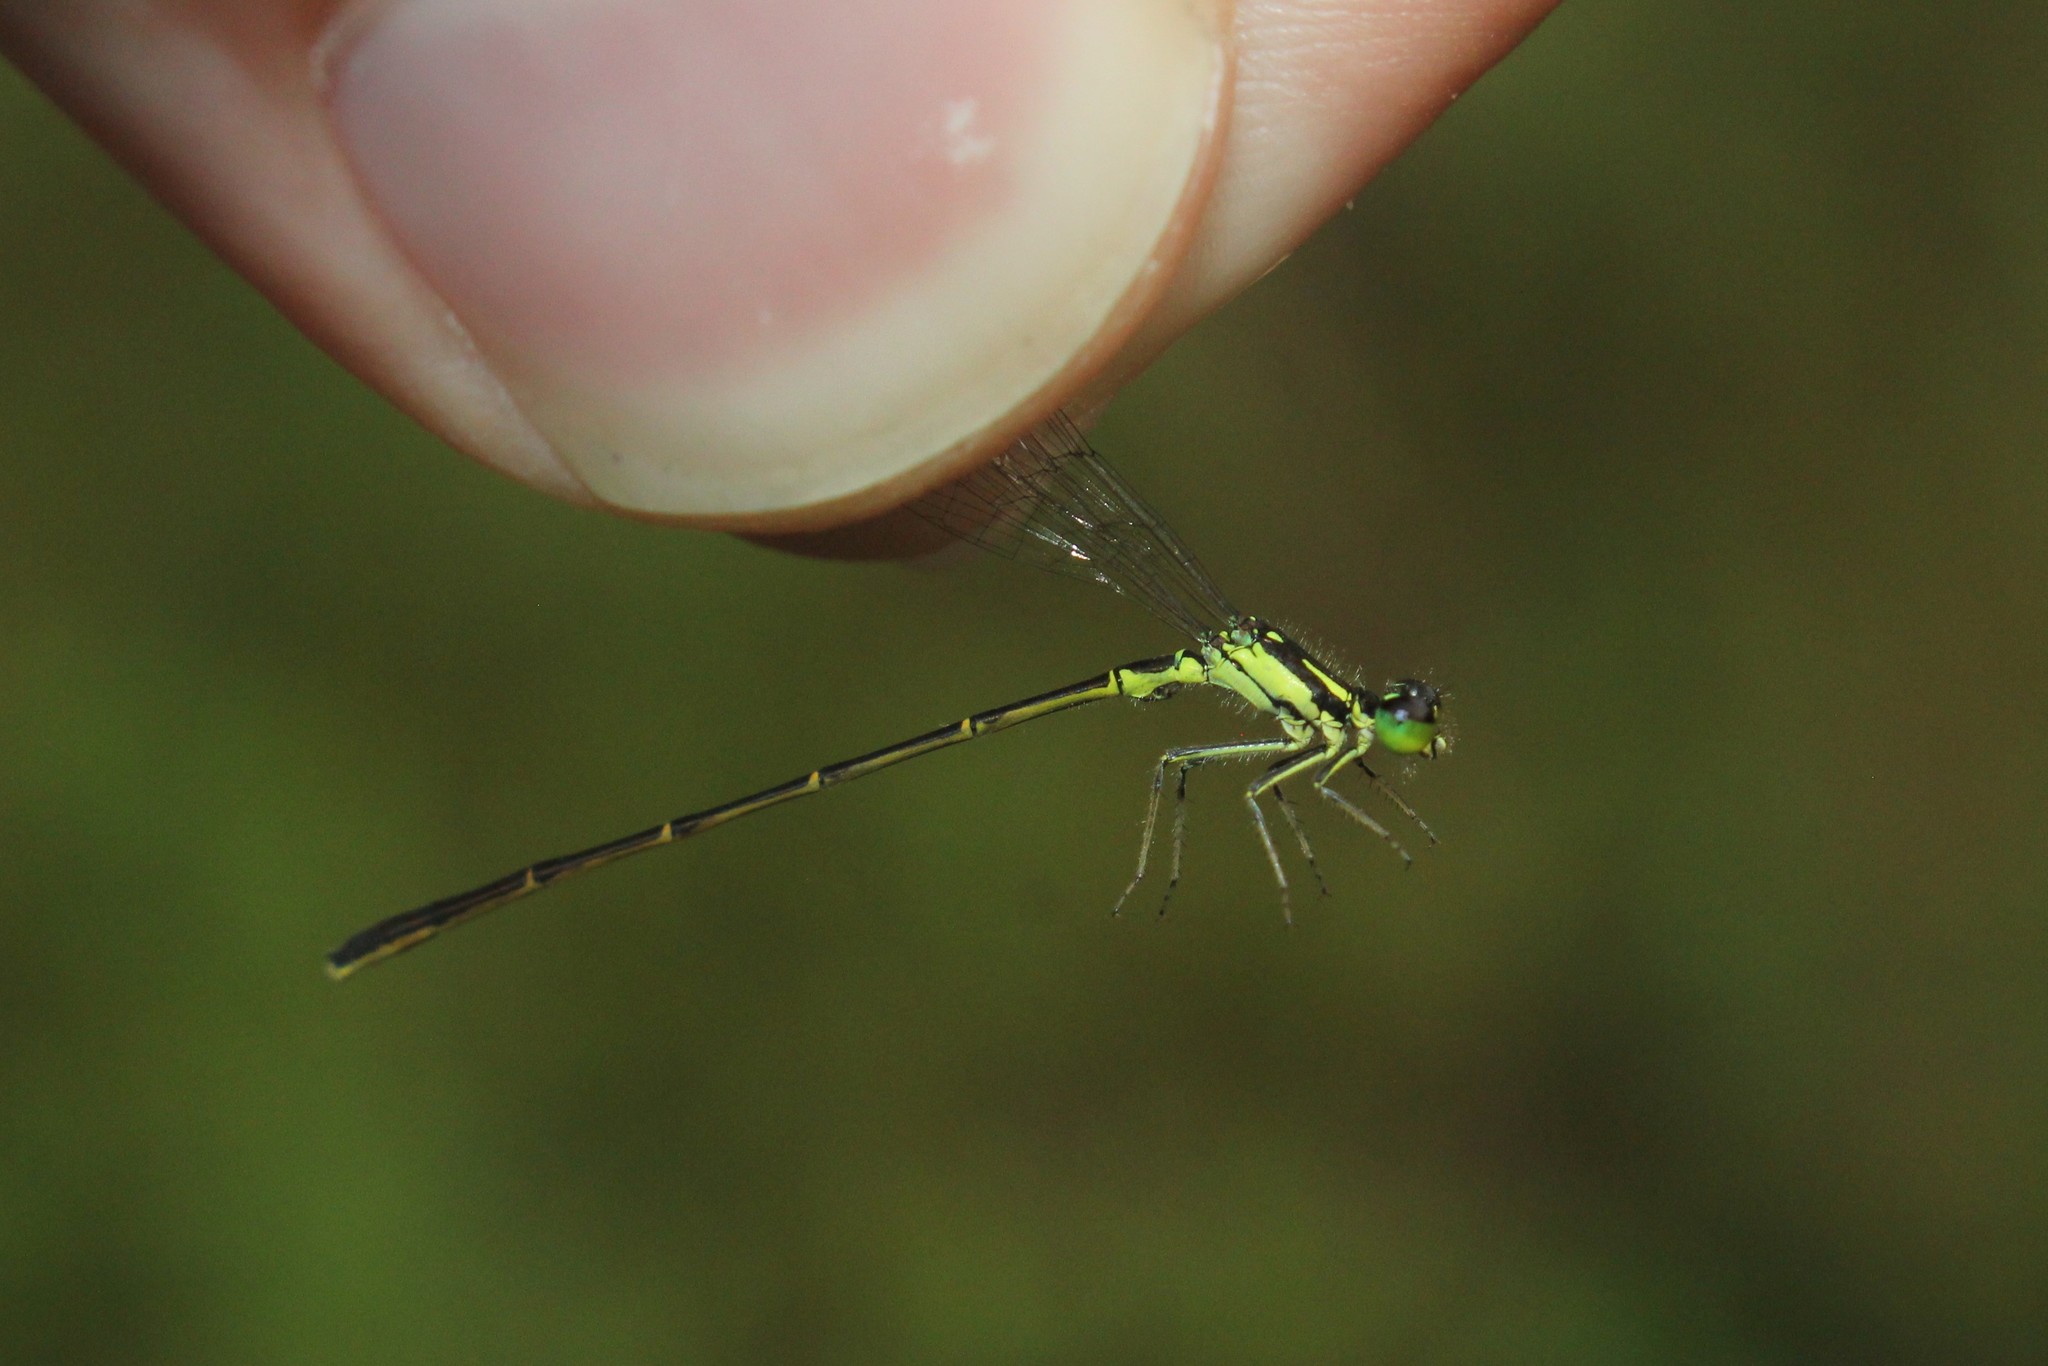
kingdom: Animalia
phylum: Arthropoda
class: Insecta
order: Odonata
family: Coenagrionidae
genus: Ischnura
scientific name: Ischnura posita
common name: Fragile forktail
